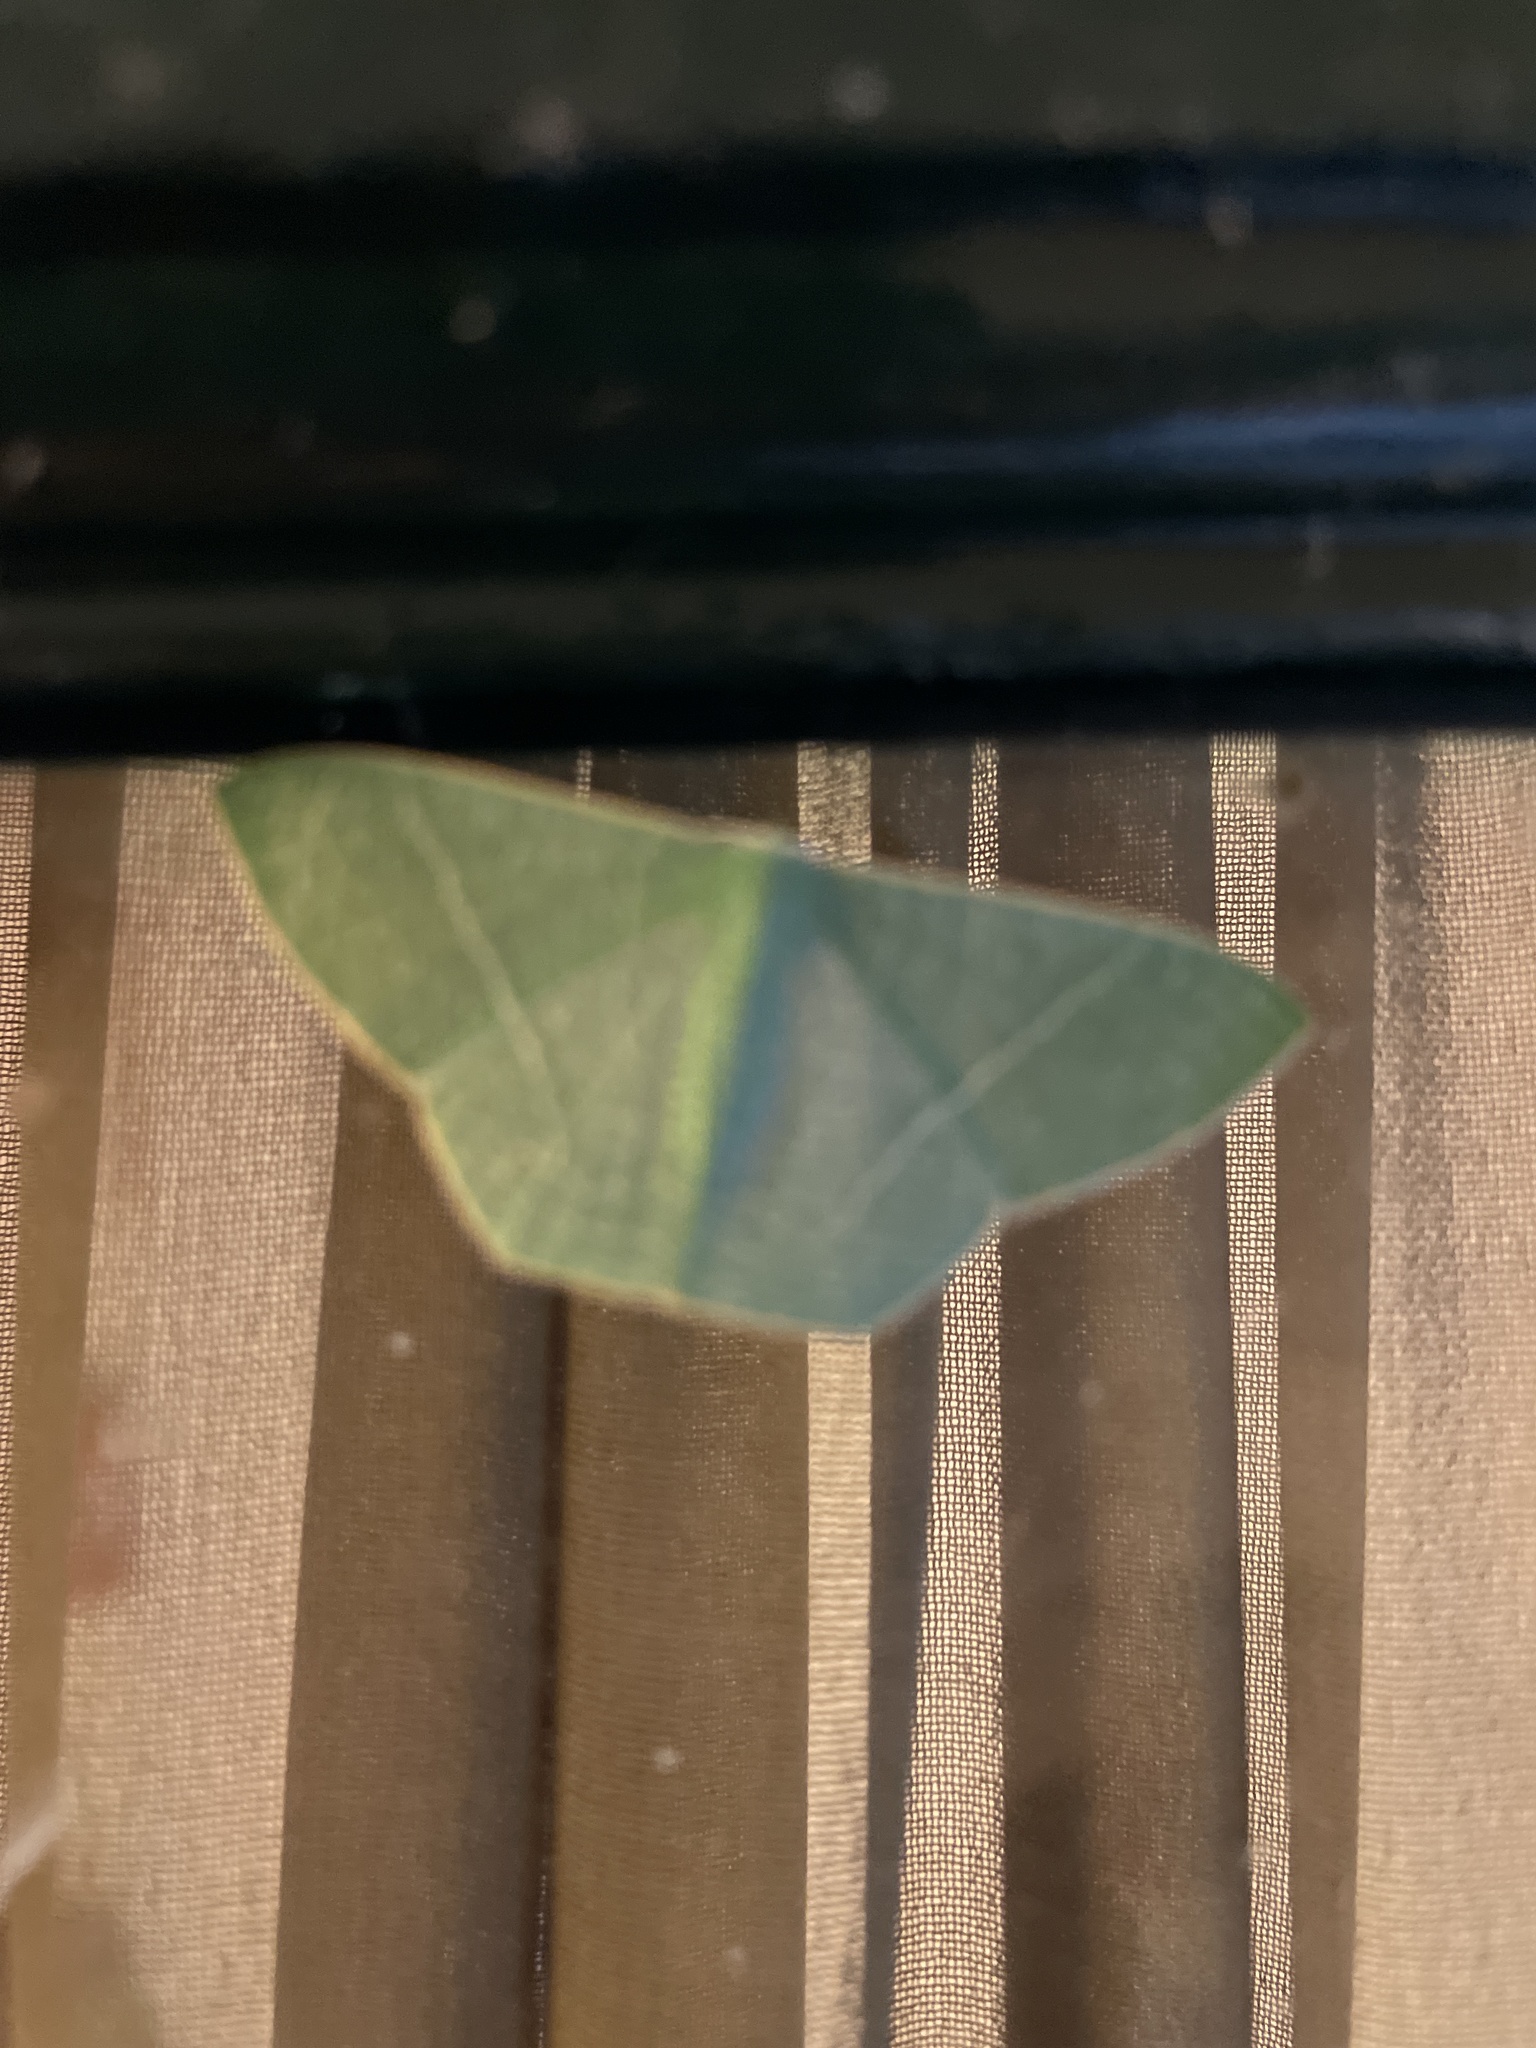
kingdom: Animalia
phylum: Arthropoda
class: Insecta
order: Lepidoptera
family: Geometridae
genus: Pelagodes
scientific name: Pelagodes antiquadraria
